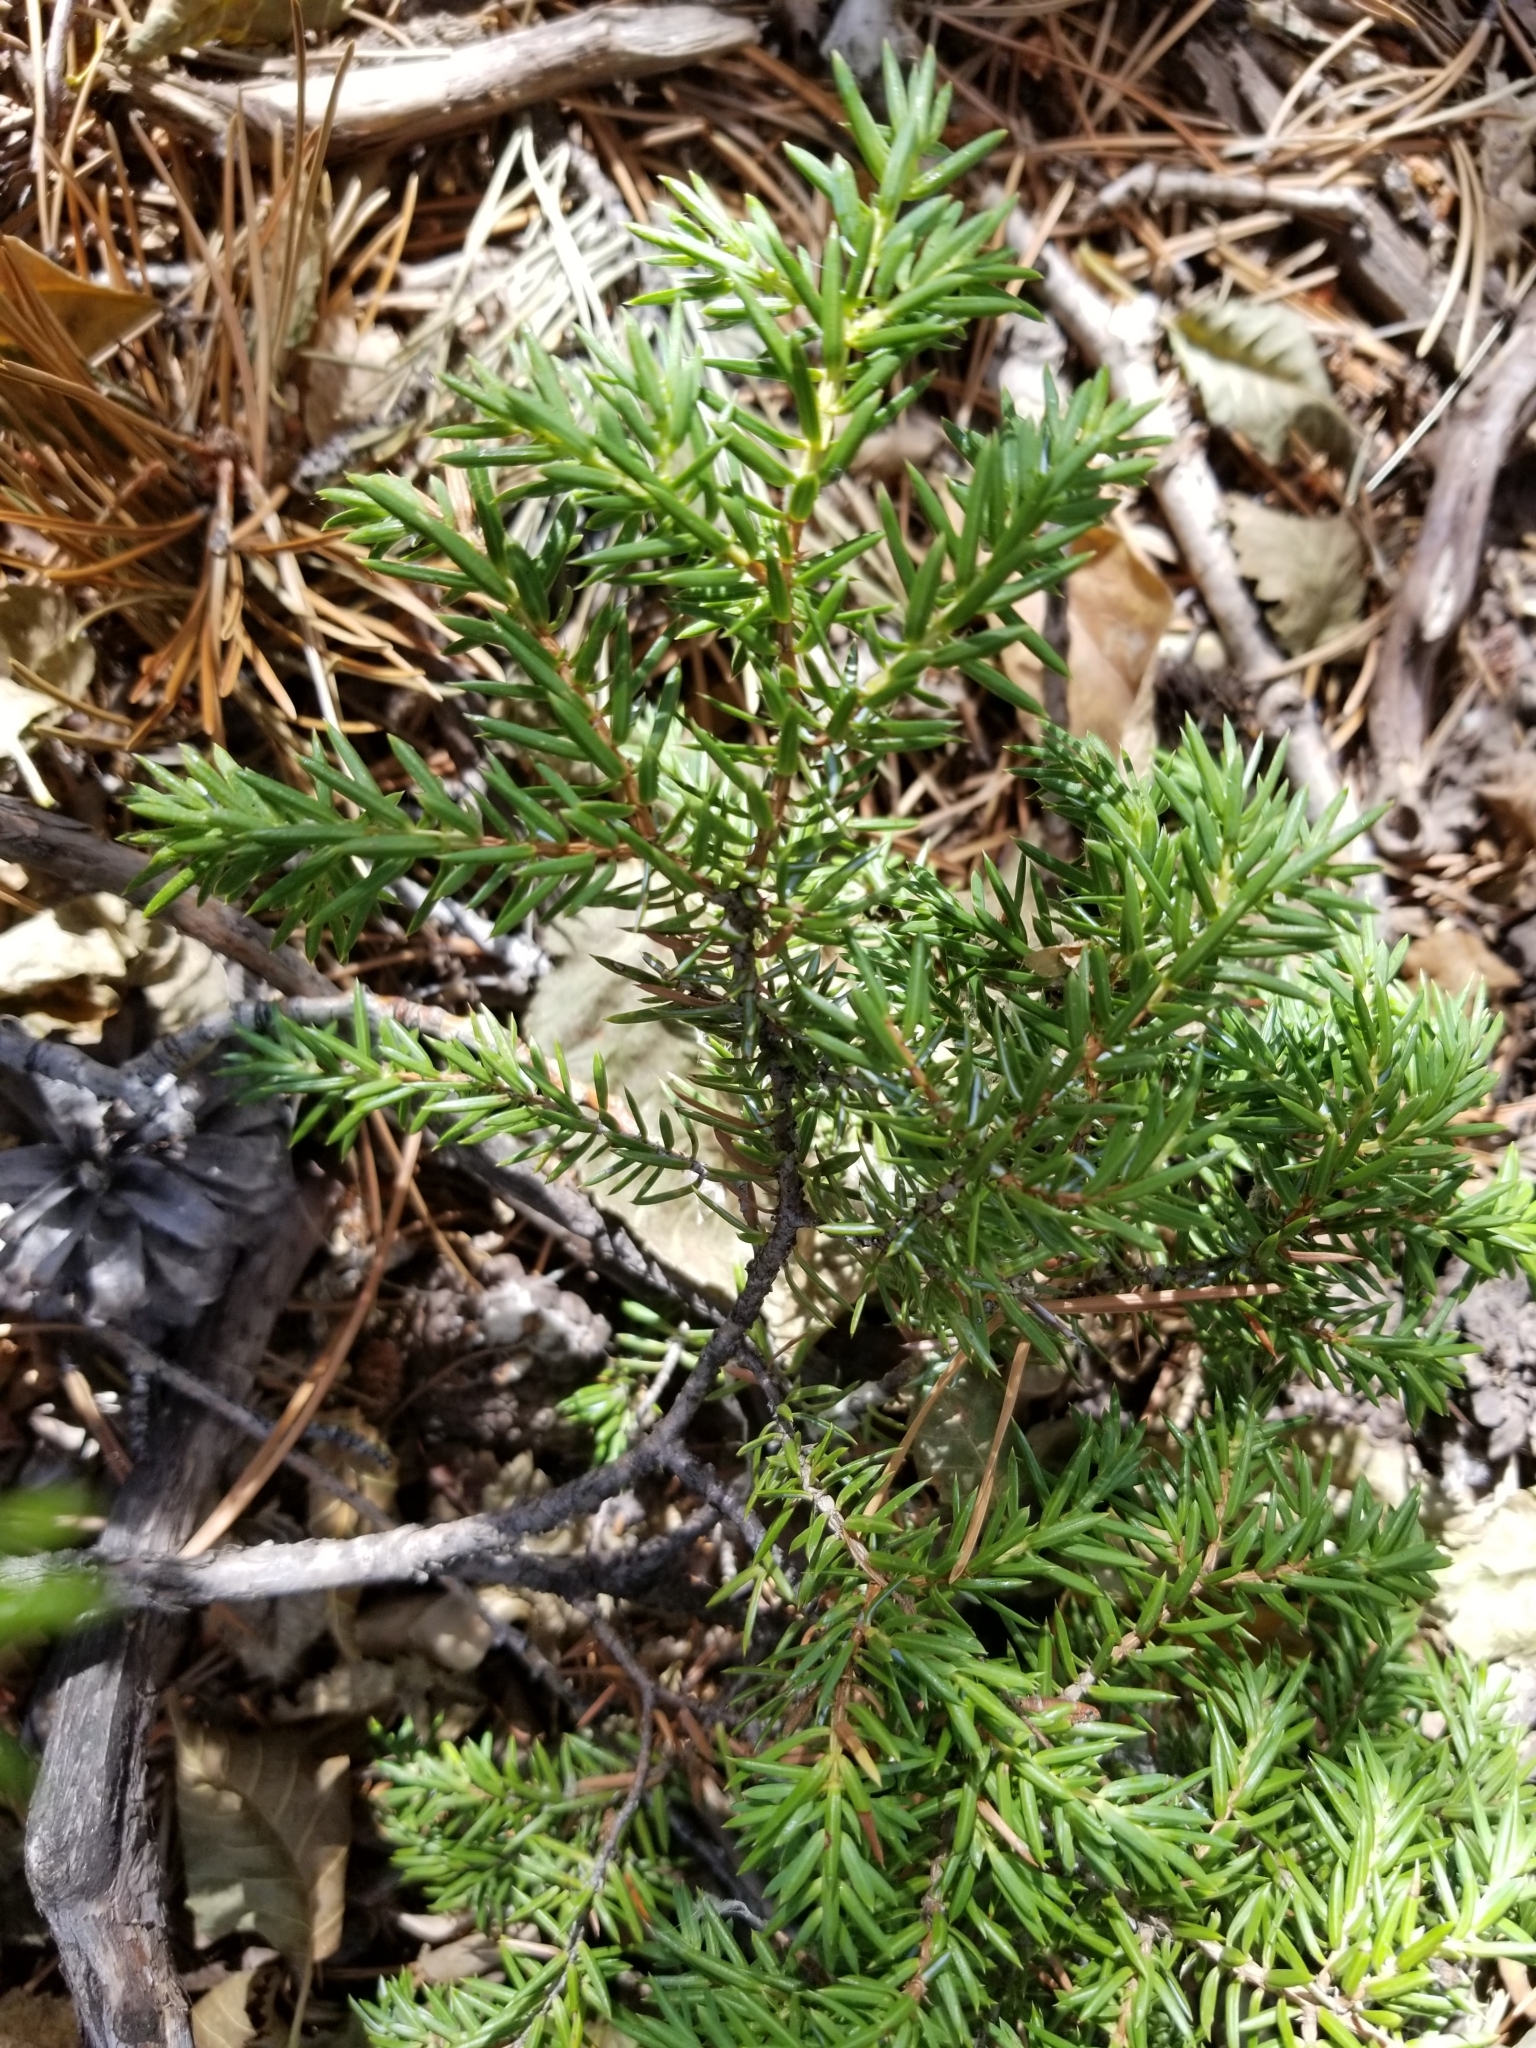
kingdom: Plantae
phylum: Tracheophyta
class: Pinopsida
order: Pinales
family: Cupressaceae
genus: Juniperus
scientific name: Juniperus communis
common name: Common juniper
